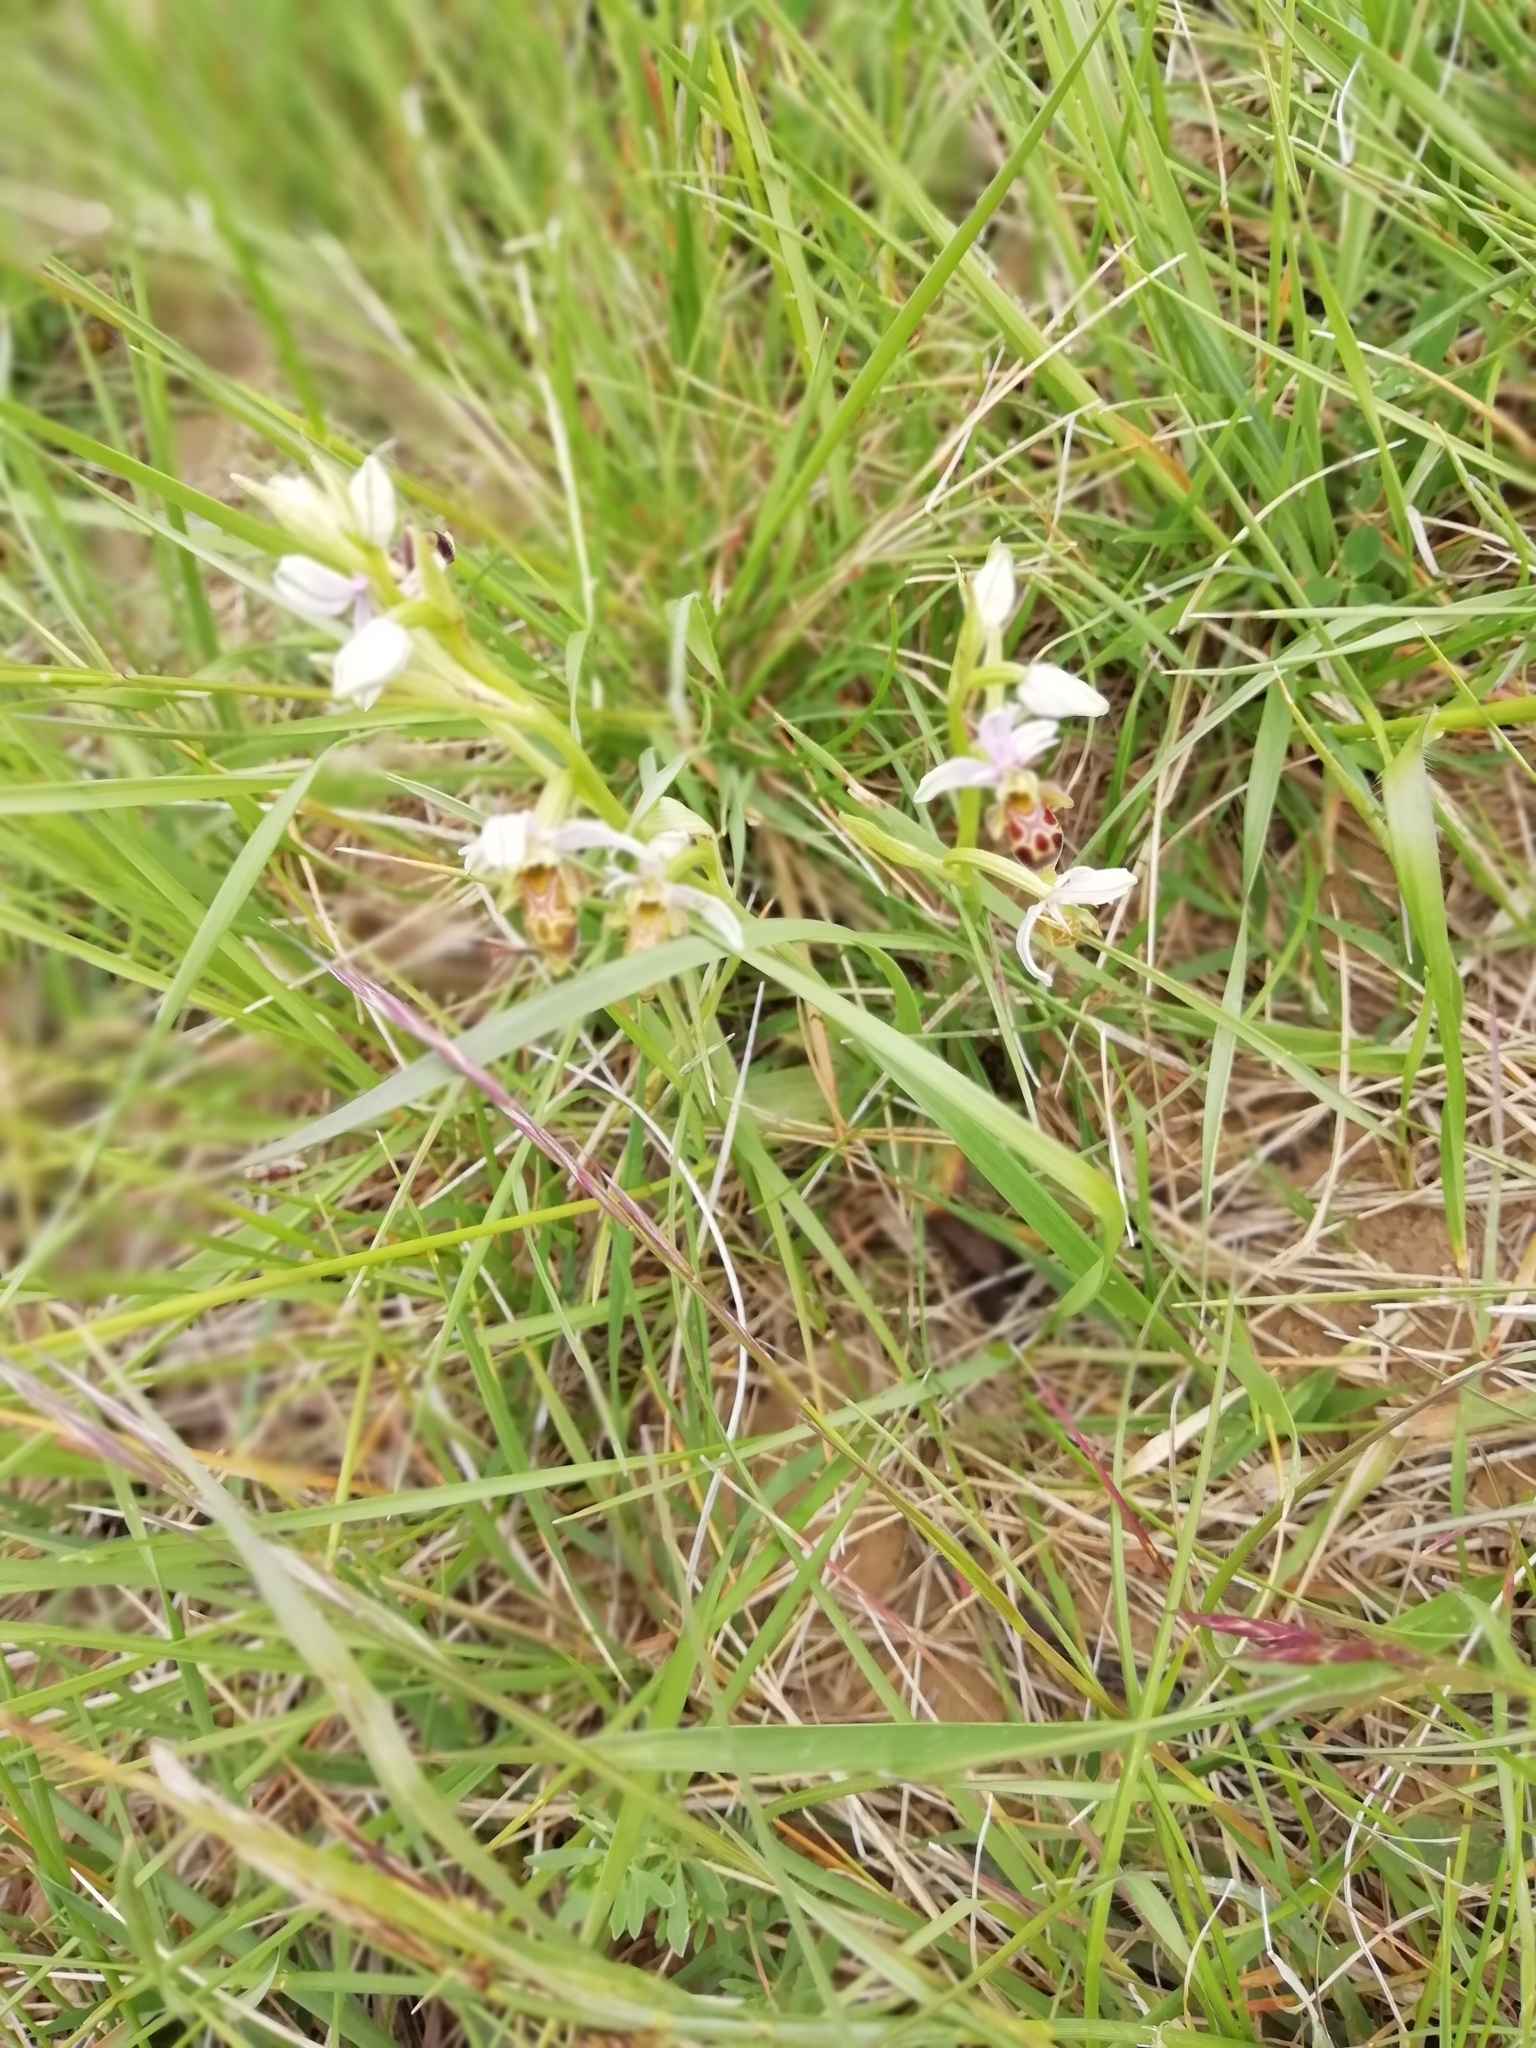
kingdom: Plantae
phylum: Tracheophyta
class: Liliopsida
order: Asparagales
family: Orchidaceae
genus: Ophrys
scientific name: Ophrys scolopax
